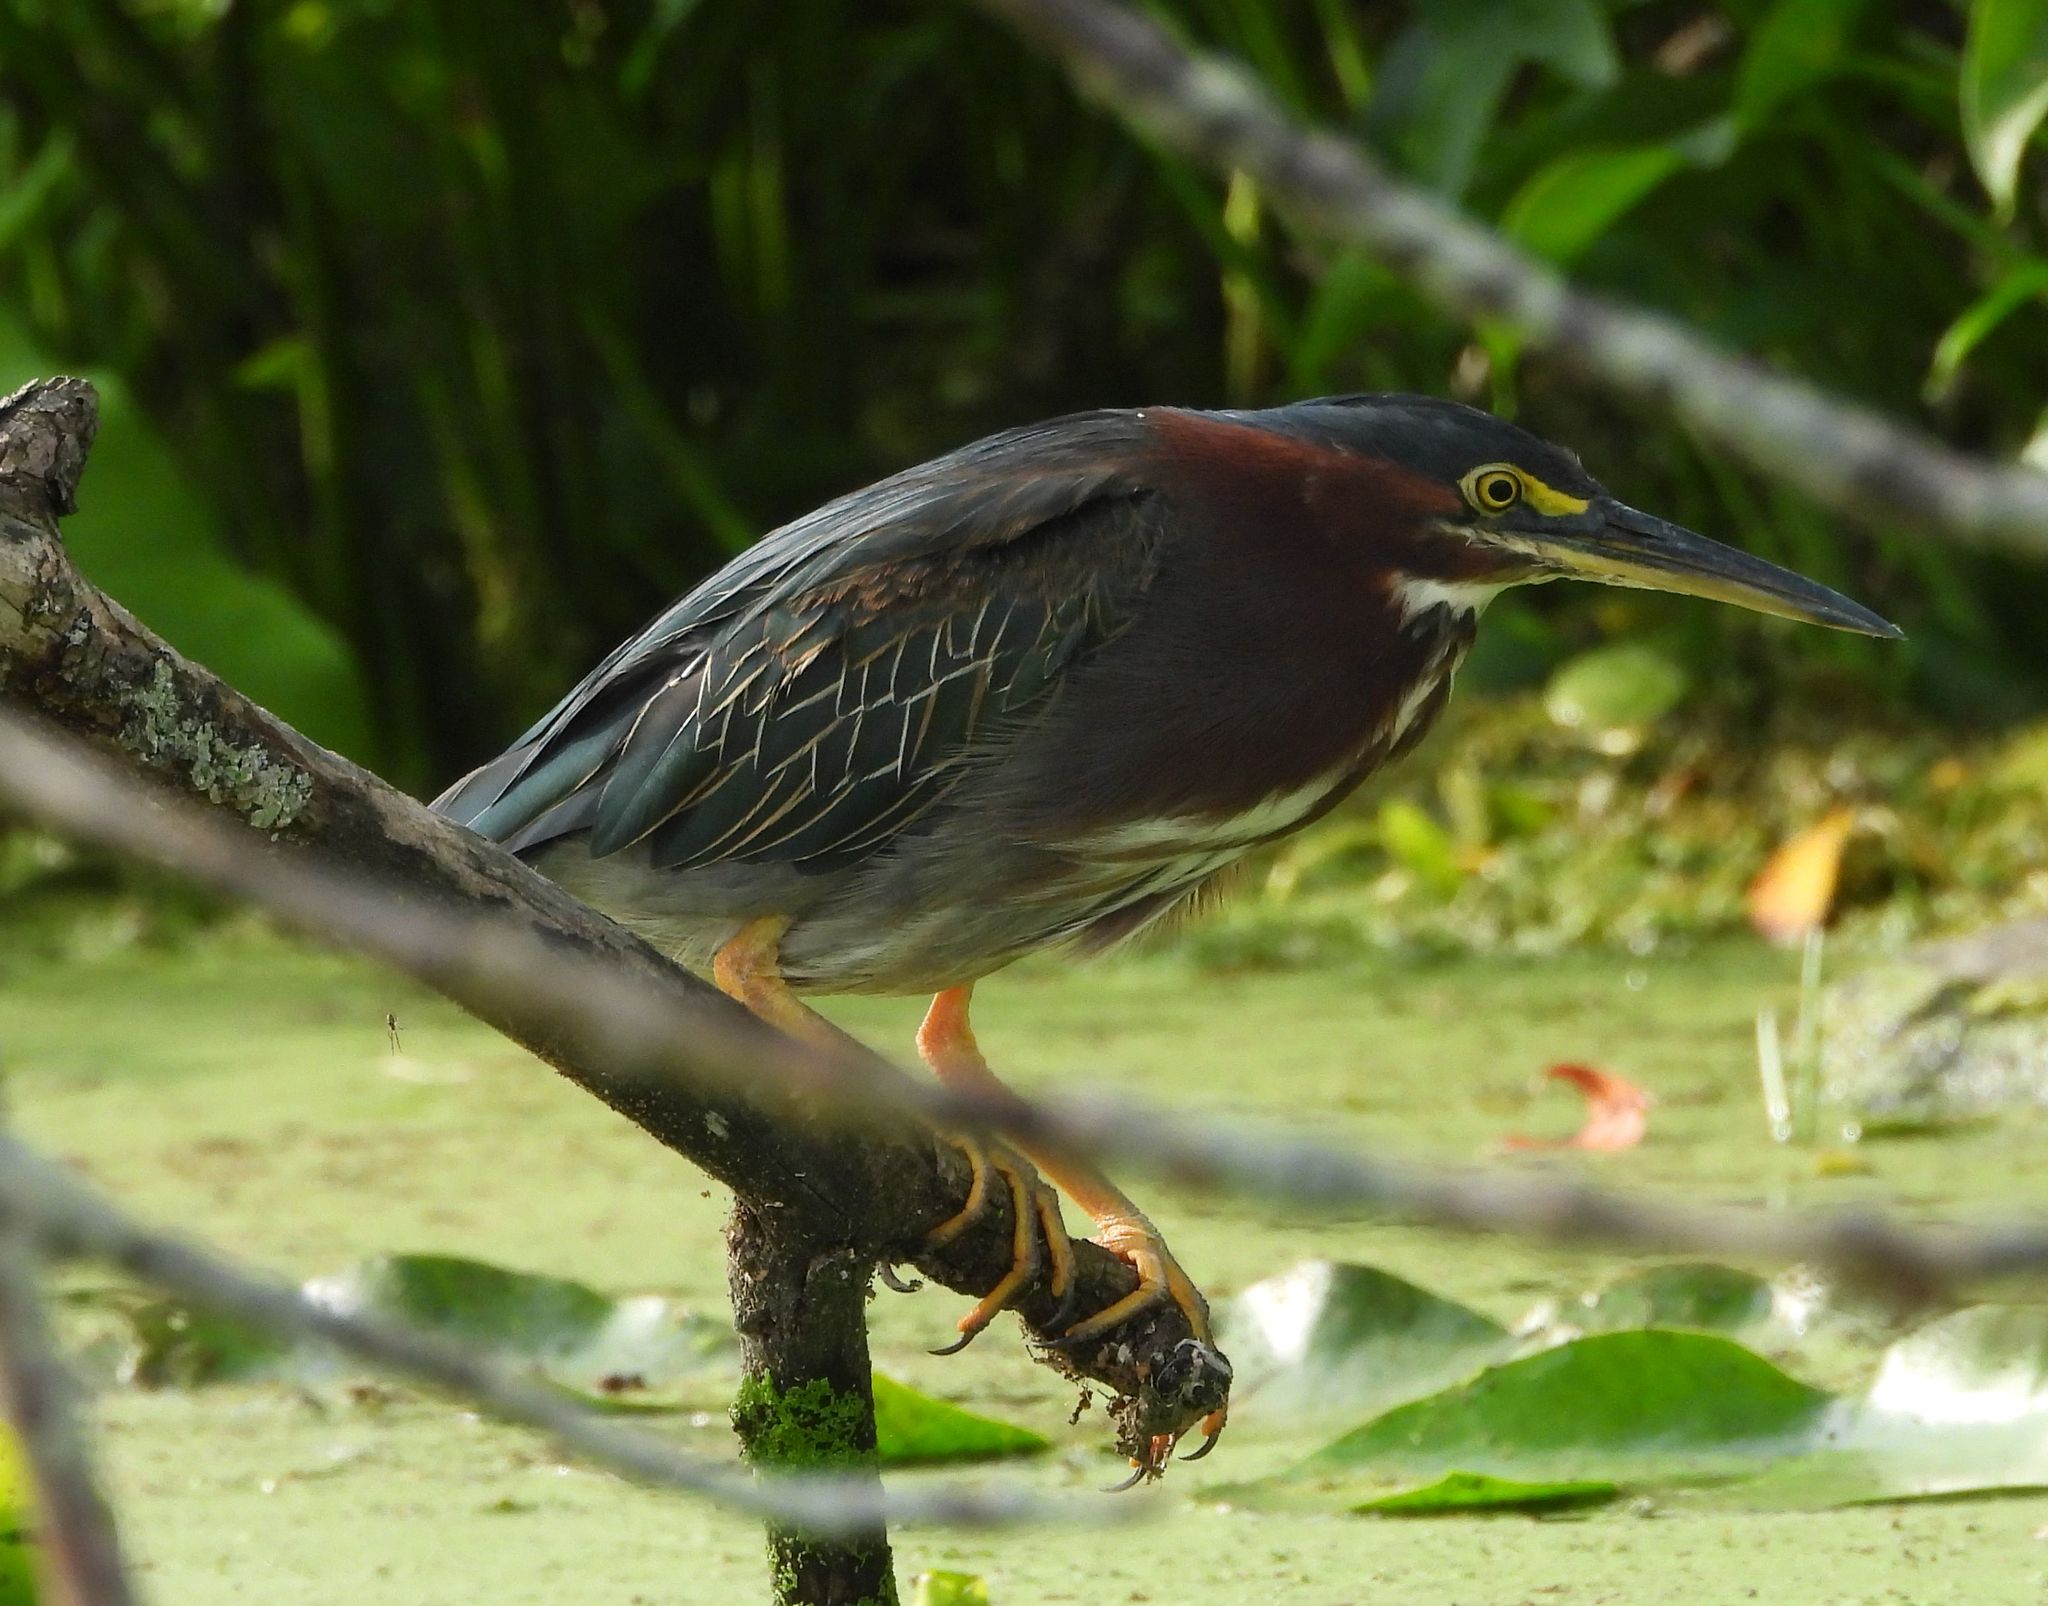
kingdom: Animalia
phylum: Chordata
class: Aves
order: Pelecaniformes
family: Ardeidae
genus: Butorides
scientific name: Butorides virescens
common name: Green heron
